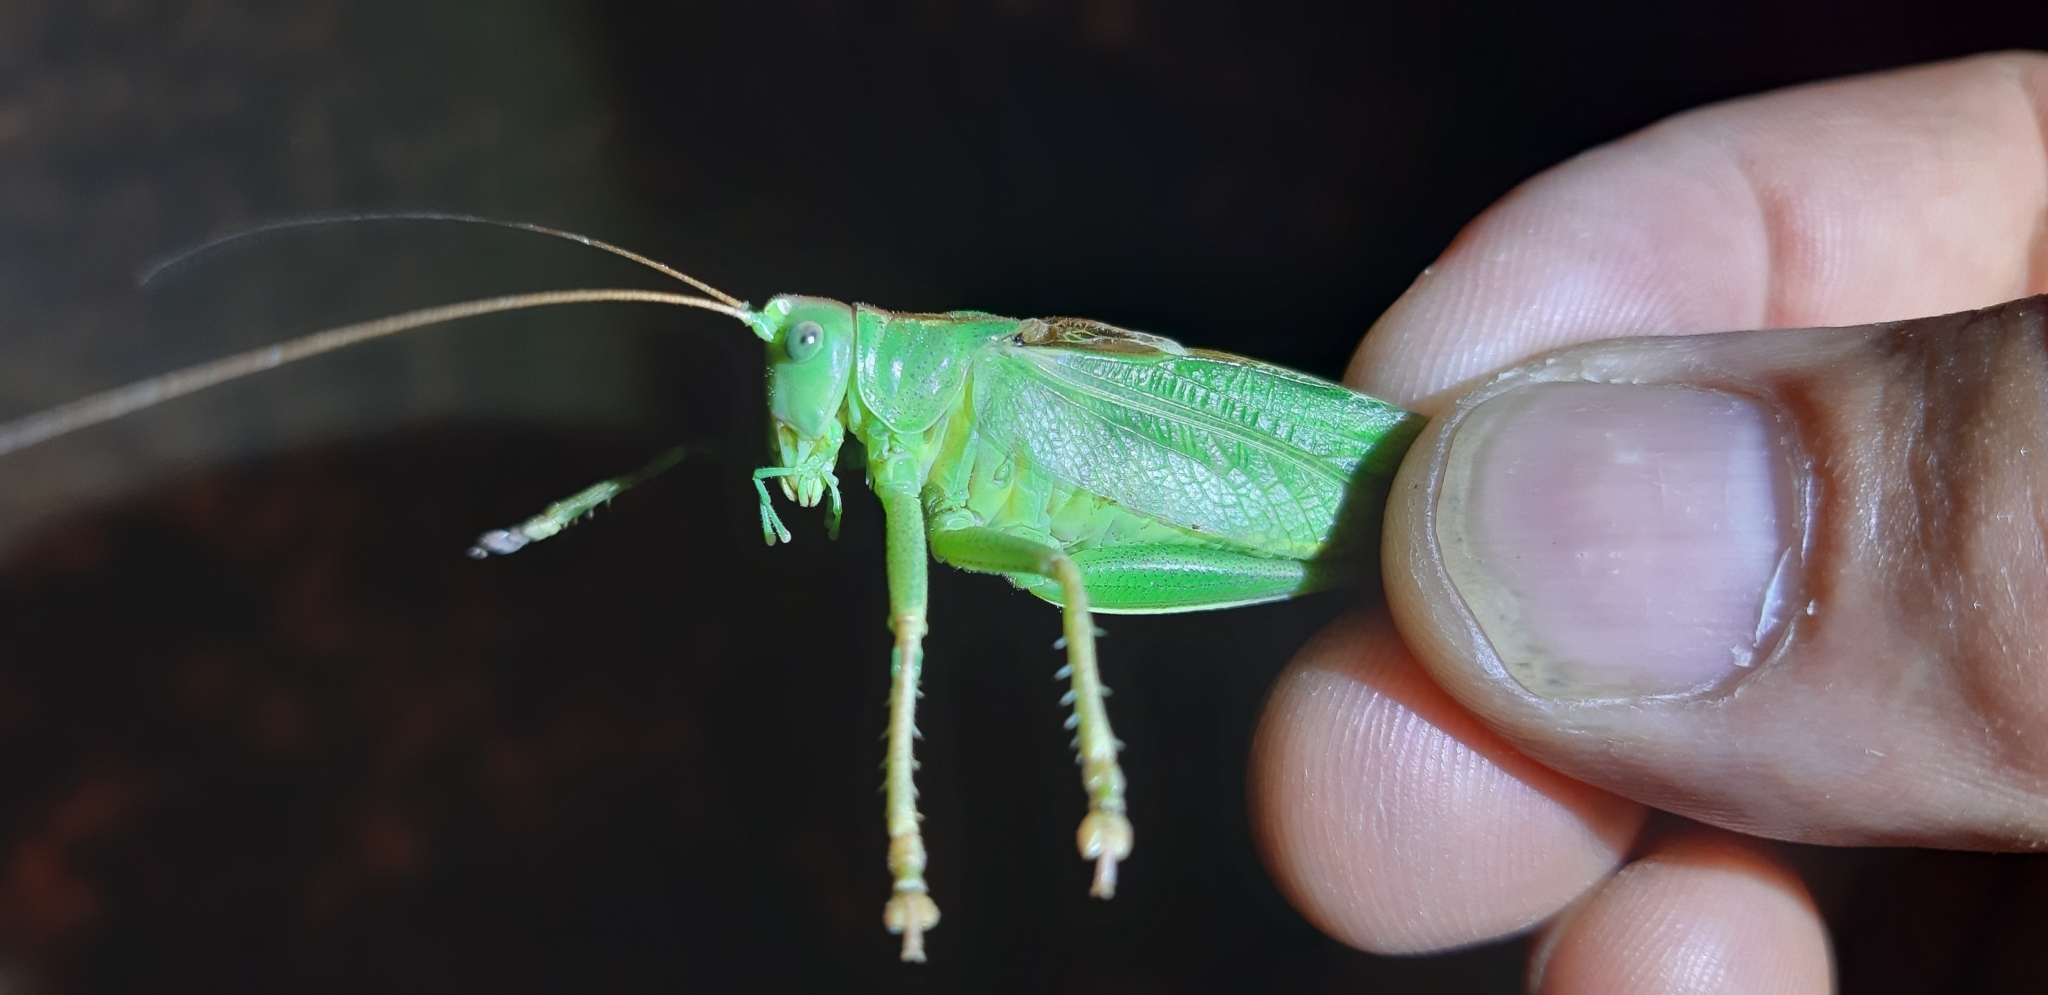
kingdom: Animalia
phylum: Arthropoda
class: Insecta
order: Orthoptera
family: Tettigoniidae
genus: Tettigonia
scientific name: Tettigonia viridissima
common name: Great green bush-cricket
